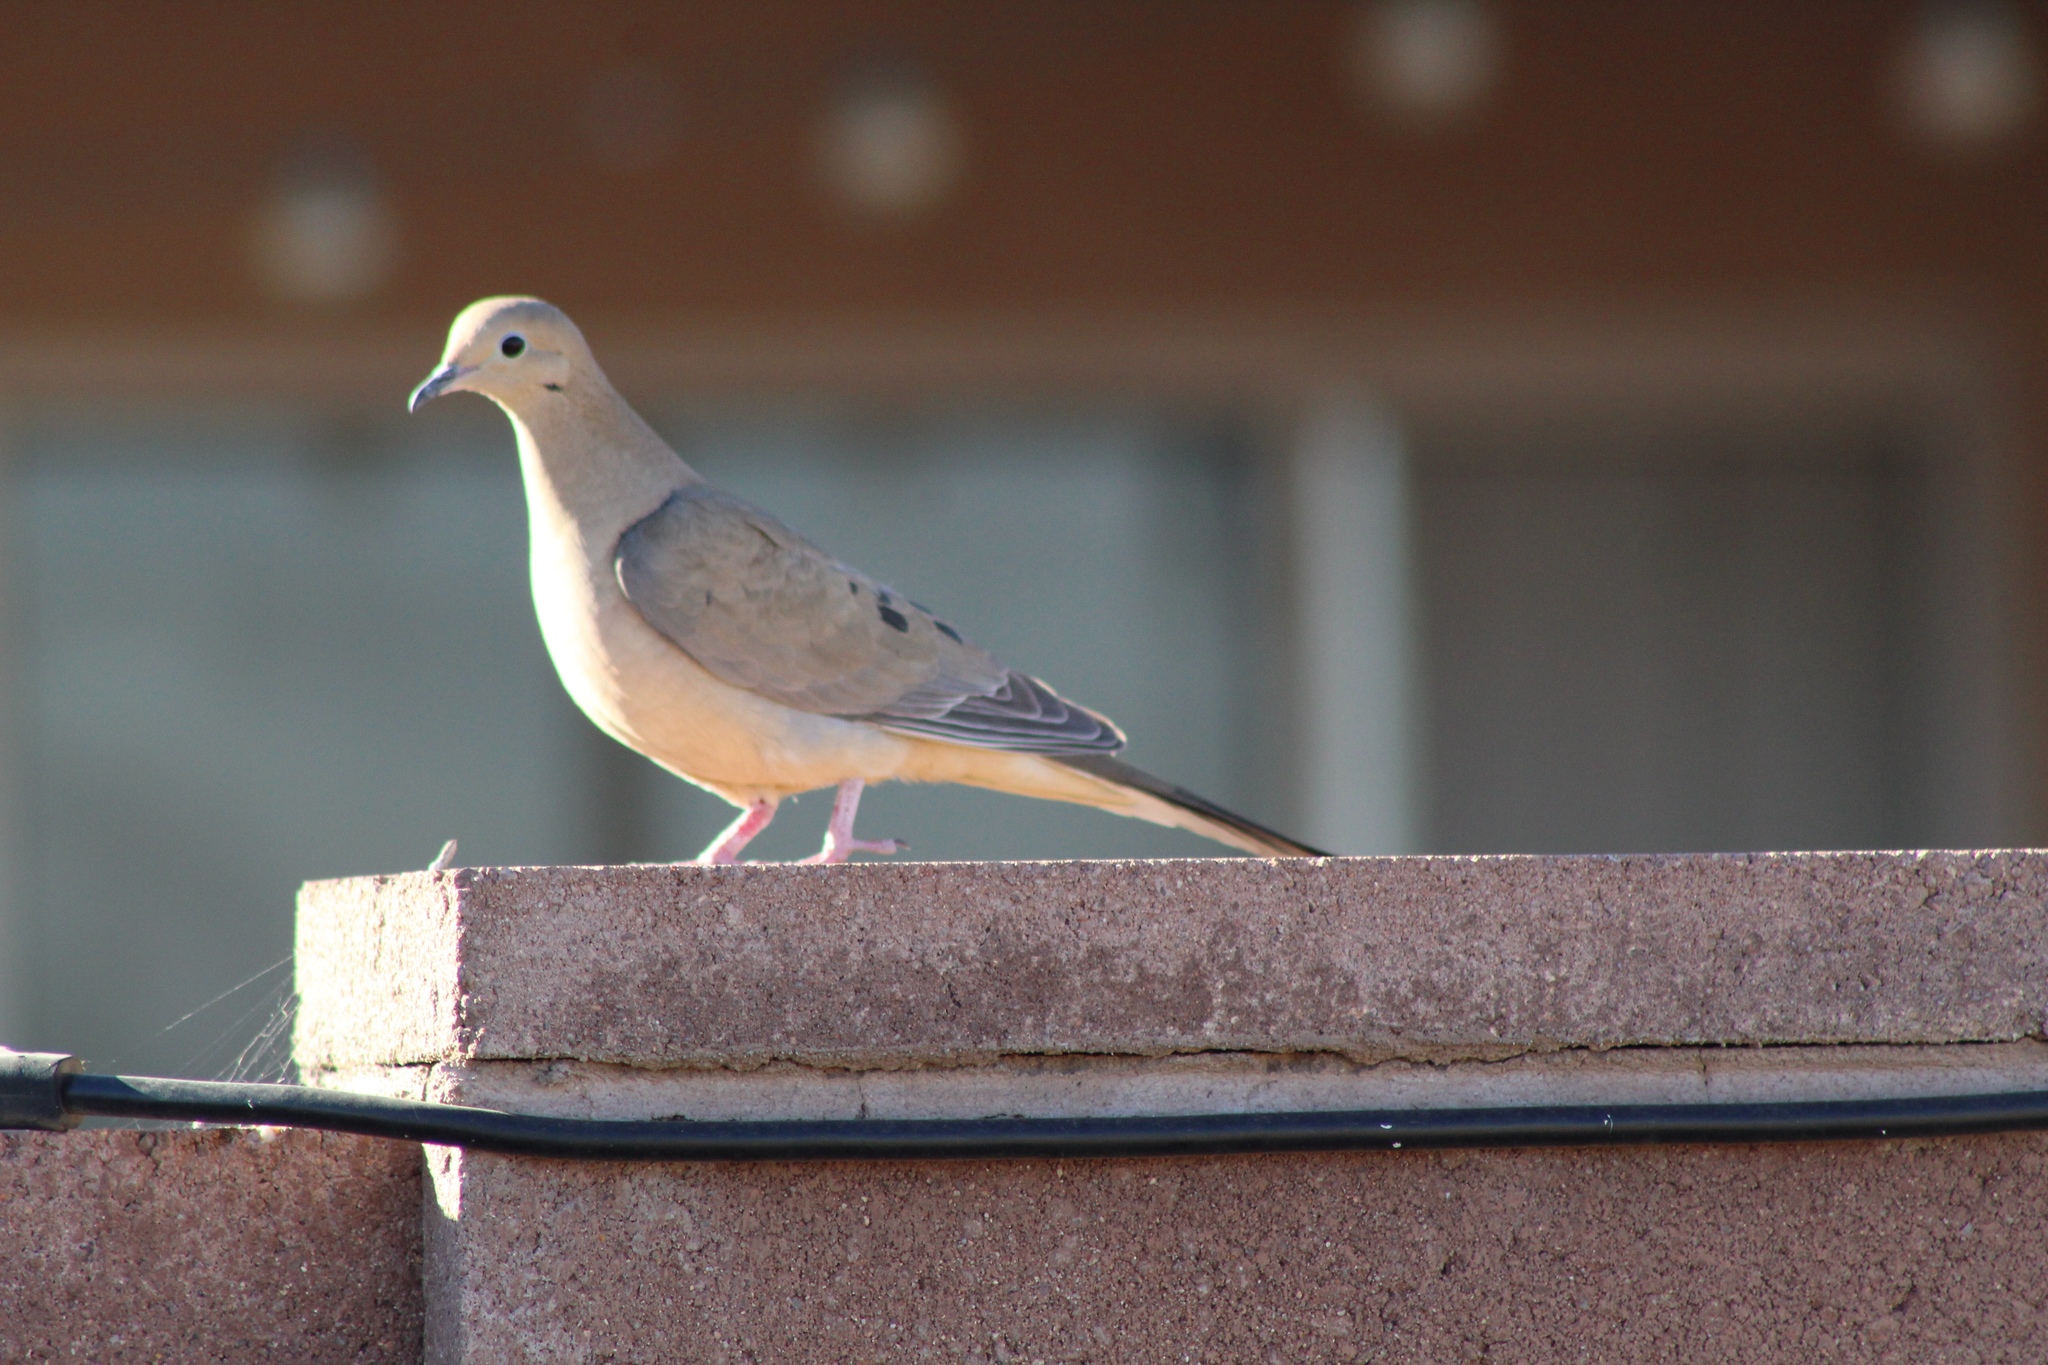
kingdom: Animalia
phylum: Chordata
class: Aves
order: Columbiformes
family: Columbidae
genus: Zenaida
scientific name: Zenaida macroura
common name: Mourning dove
